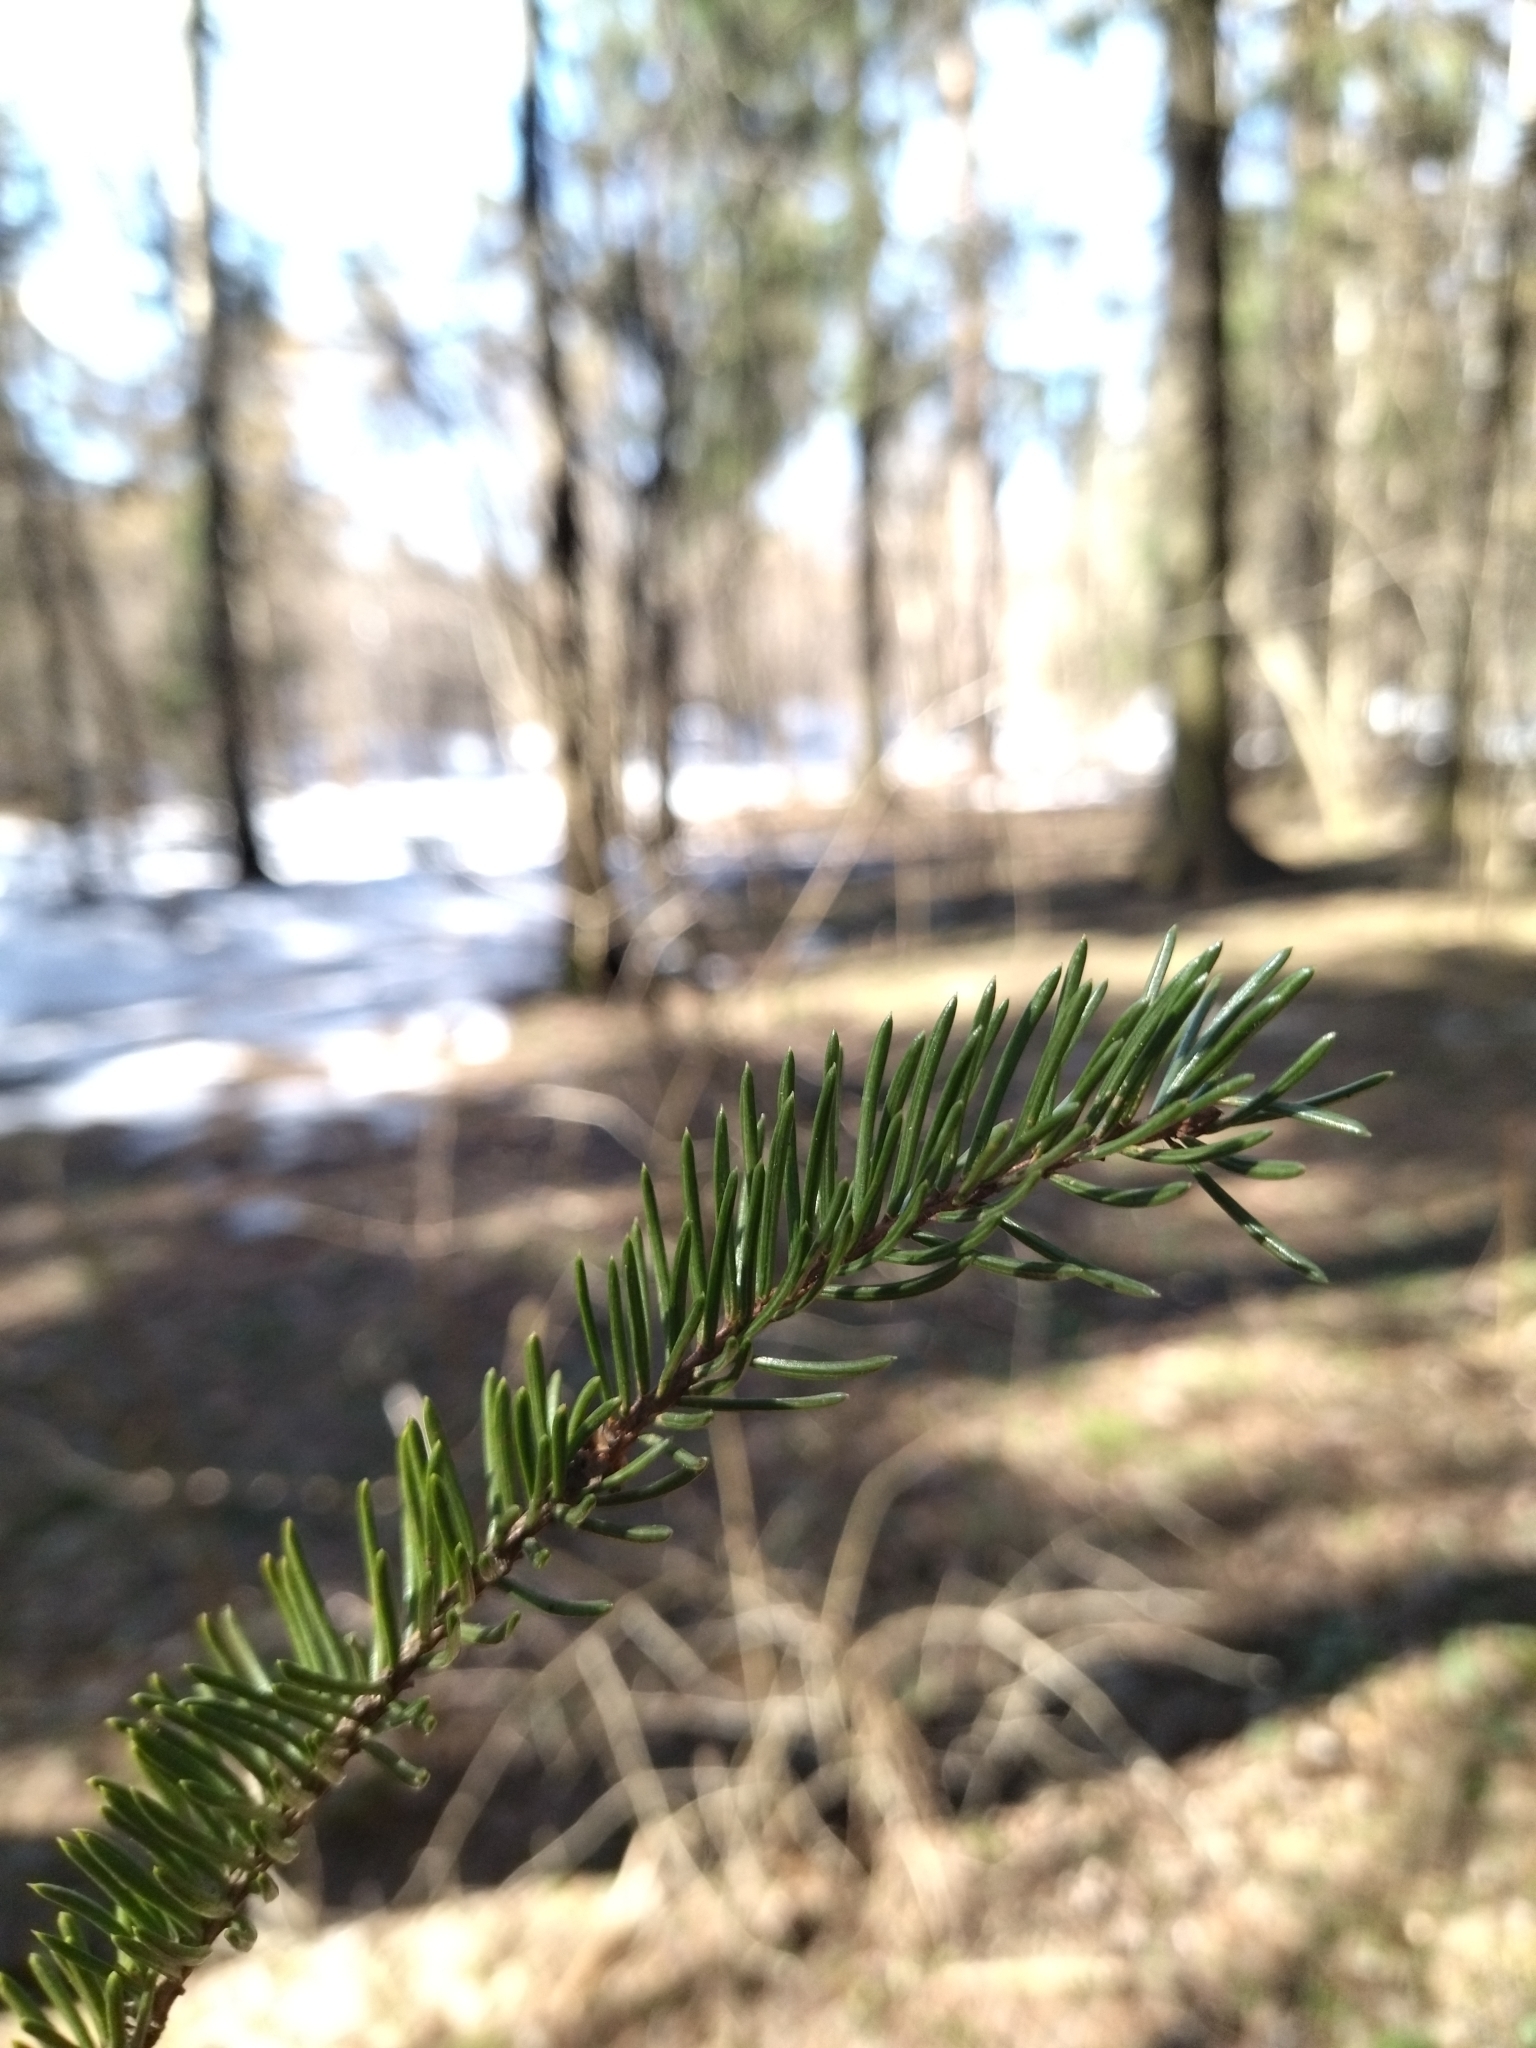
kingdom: Plantae
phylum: Tracheophyta
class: Pinopsida
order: Pinales
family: Pinaceae
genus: Picea
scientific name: Picea abies
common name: Norway spruce
